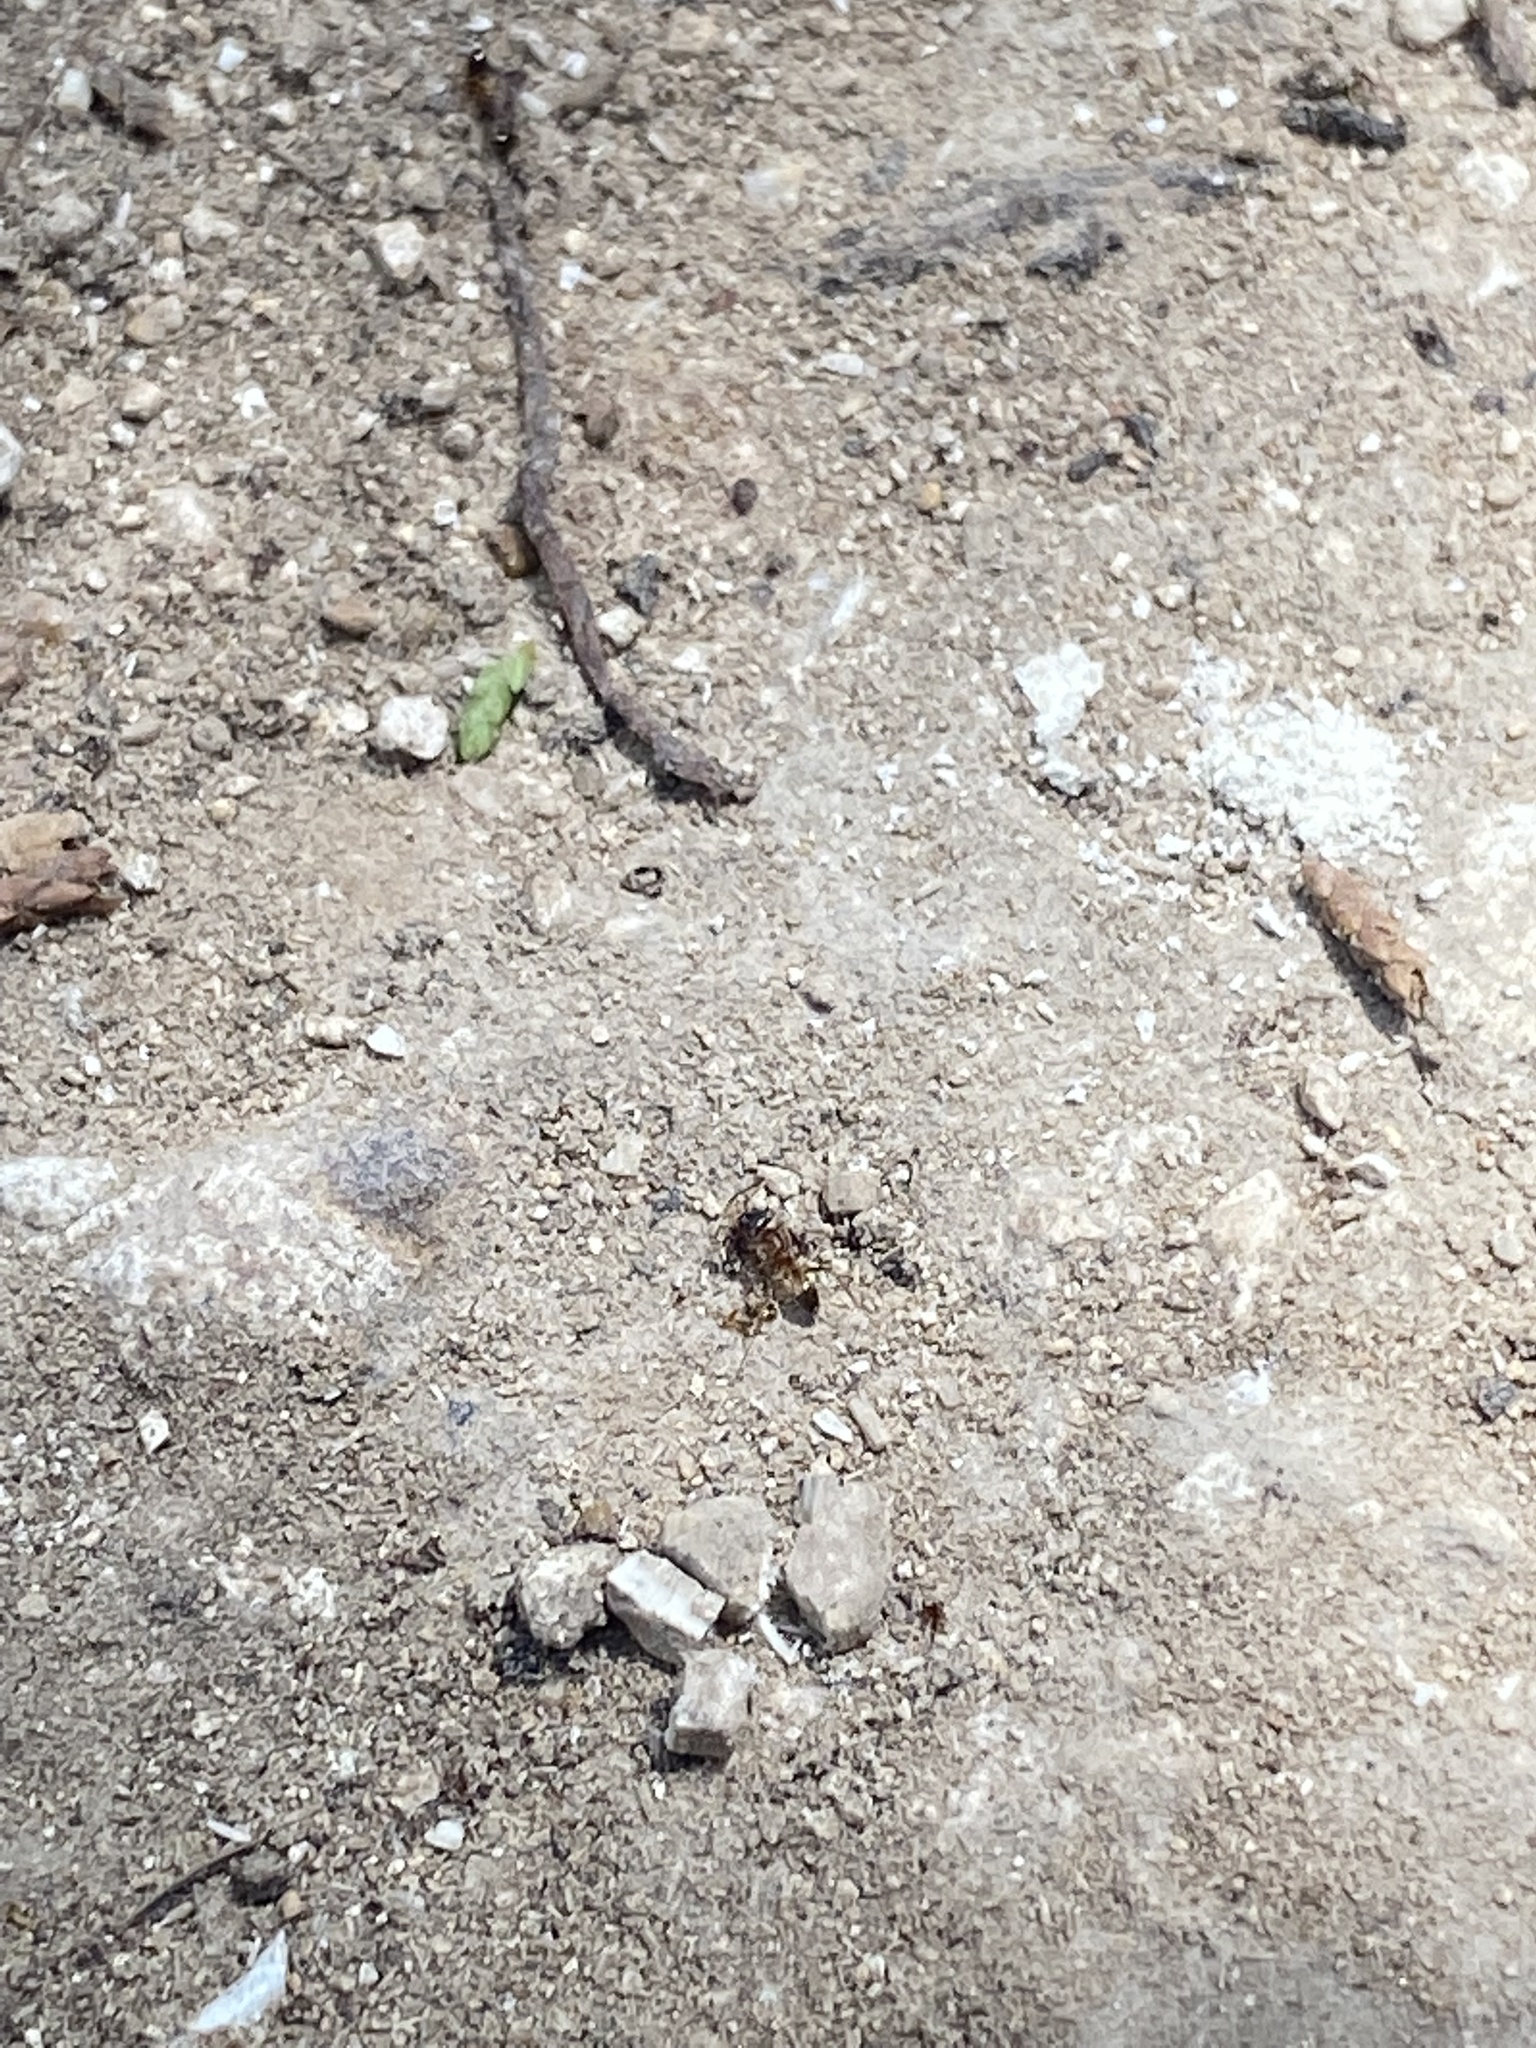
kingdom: Animalia
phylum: Arthropoda
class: Insecta
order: Hymenoptera
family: Formicidae
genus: Dorymyrmex
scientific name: Dorymyrmex flavus
